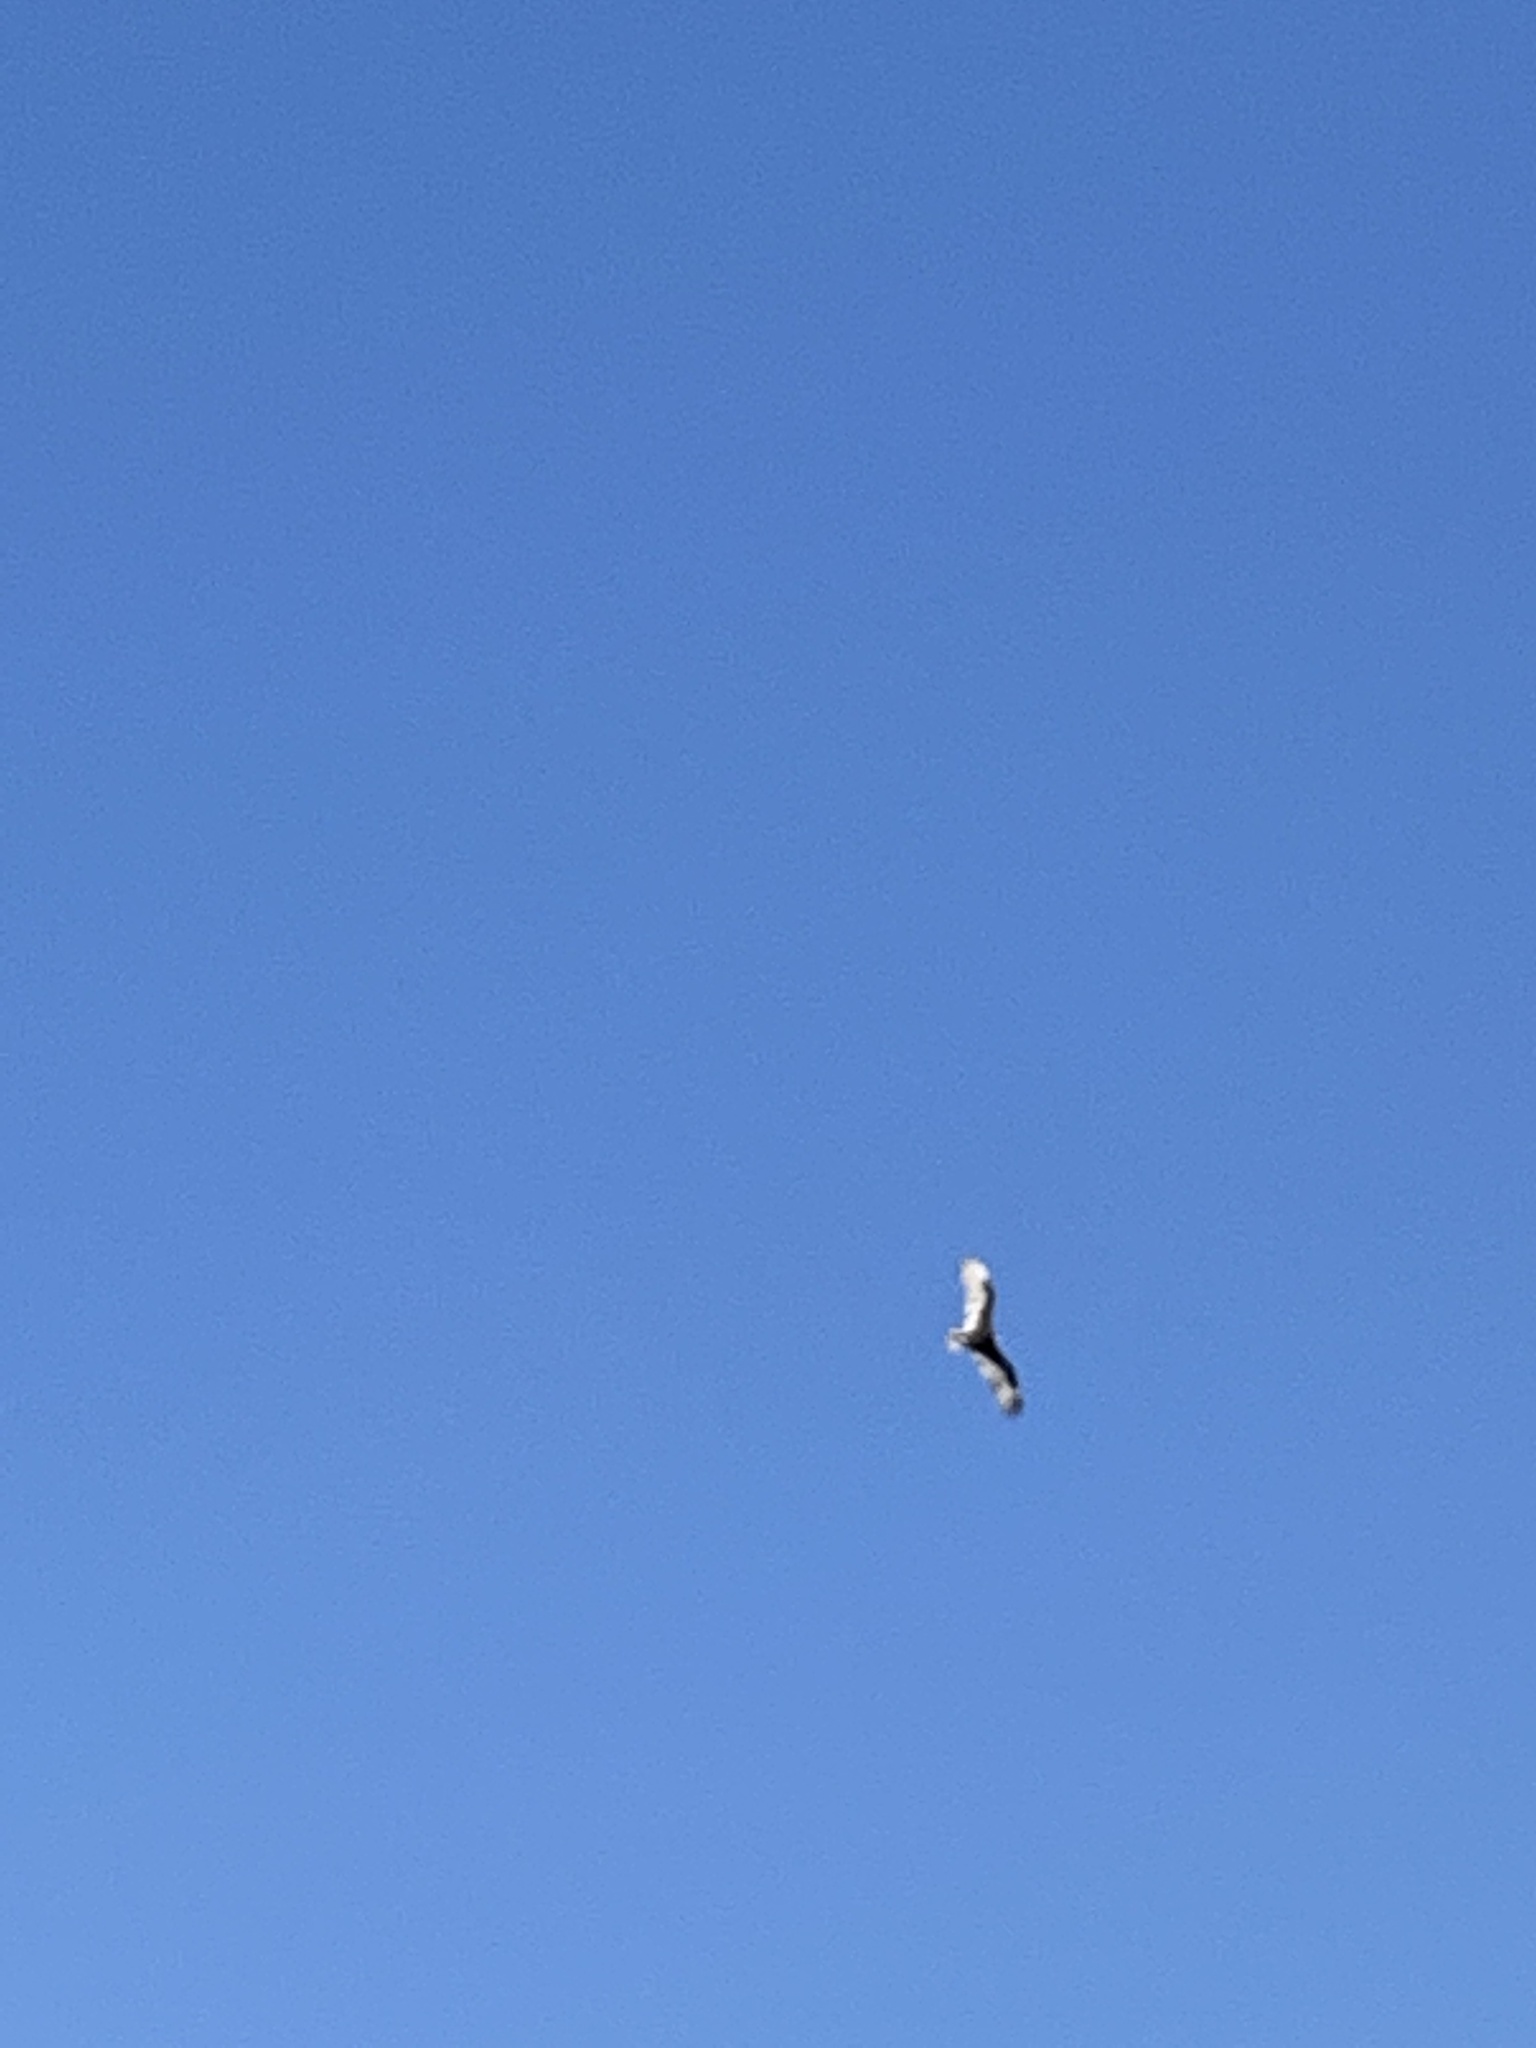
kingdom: Animalia
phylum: Chordata
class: Aves
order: Accipitriformes
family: Cathartidae
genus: Cathartes
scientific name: Cathartes aura
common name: Turkey vulture
